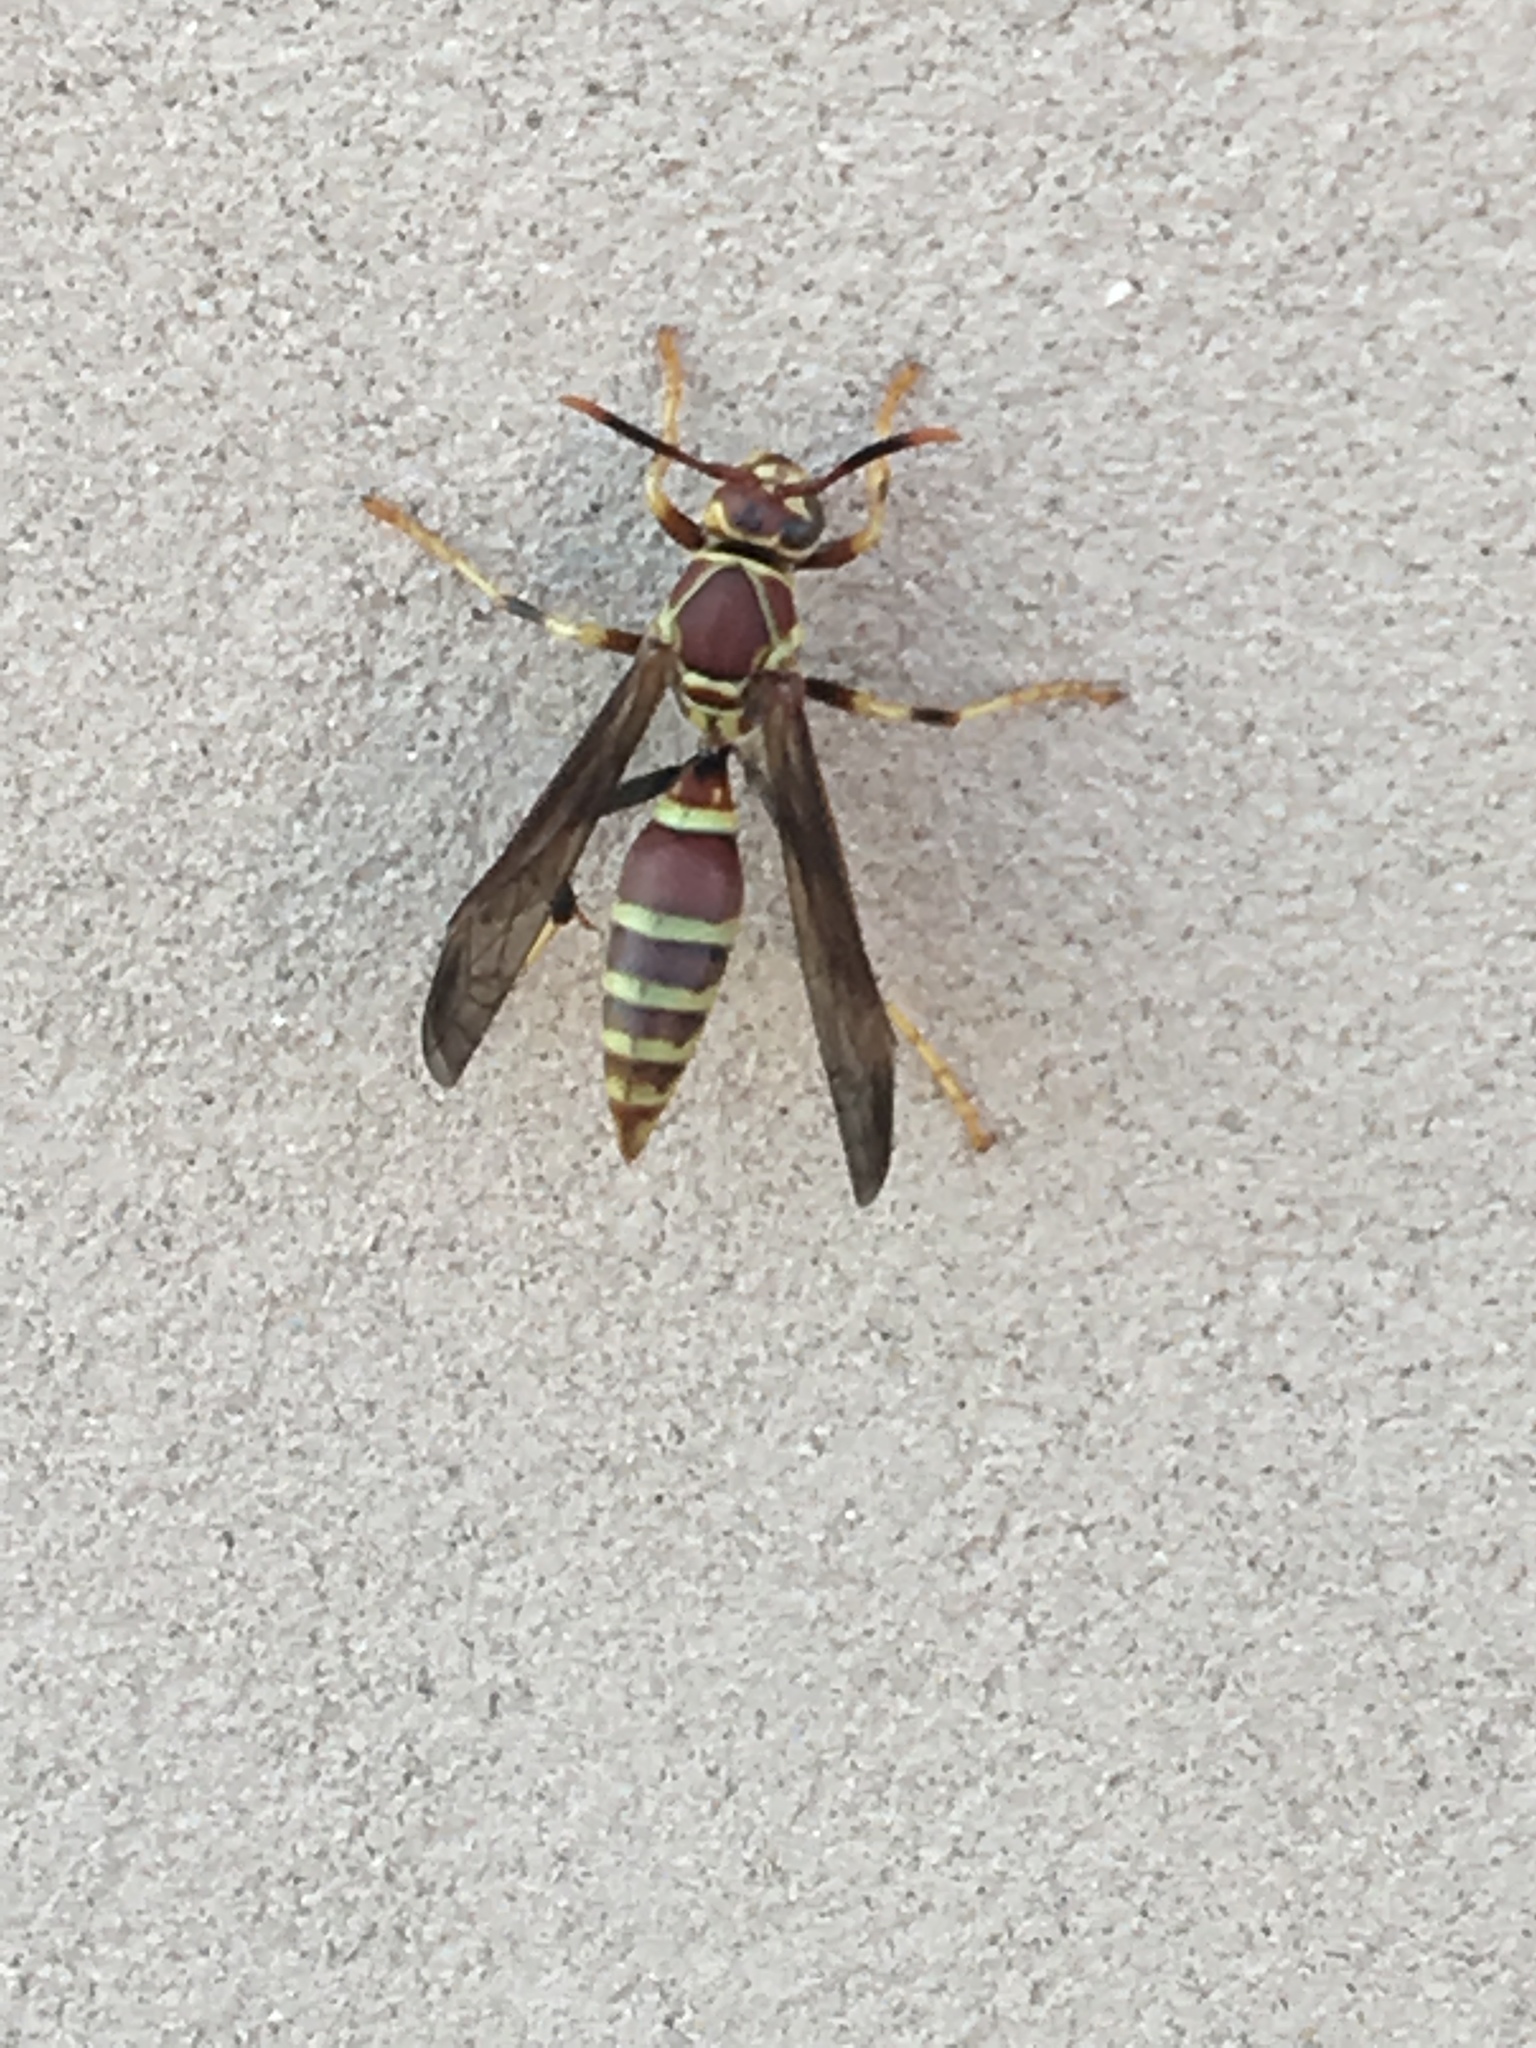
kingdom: Animalia
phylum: Arthropoda
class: Insecta
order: Hymenoptera
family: Eumenidae
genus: Polistes
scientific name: Polistes exclamans
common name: Paper wasp
